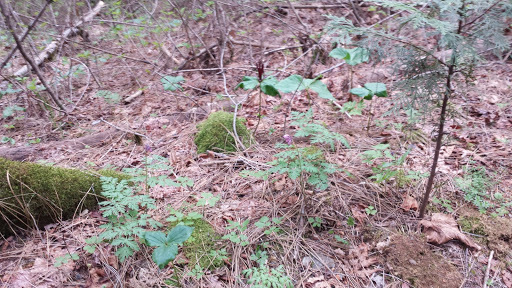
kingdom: Plantae
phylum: Tracheophyta
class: Liliopsida
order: Liliales
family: Melanthiaceae
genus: Trillium
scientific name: Trillium chloropetalum
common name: Giant trillium
